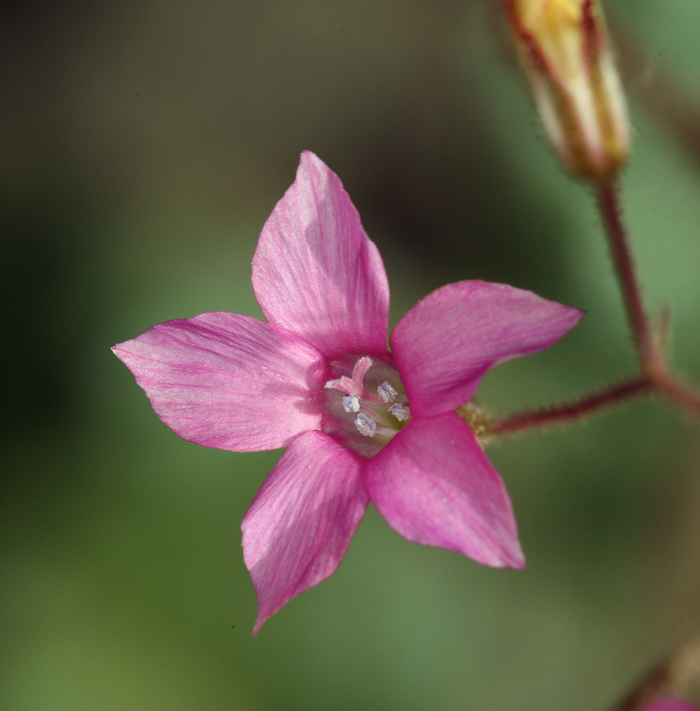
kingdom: Plantae
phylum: Tracheophyta
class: Magnoliopsida
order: Ericales
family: Polemoniaceae
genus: Aliciella
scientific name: Aliciella latifolia
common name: Broad-leaf gilia
